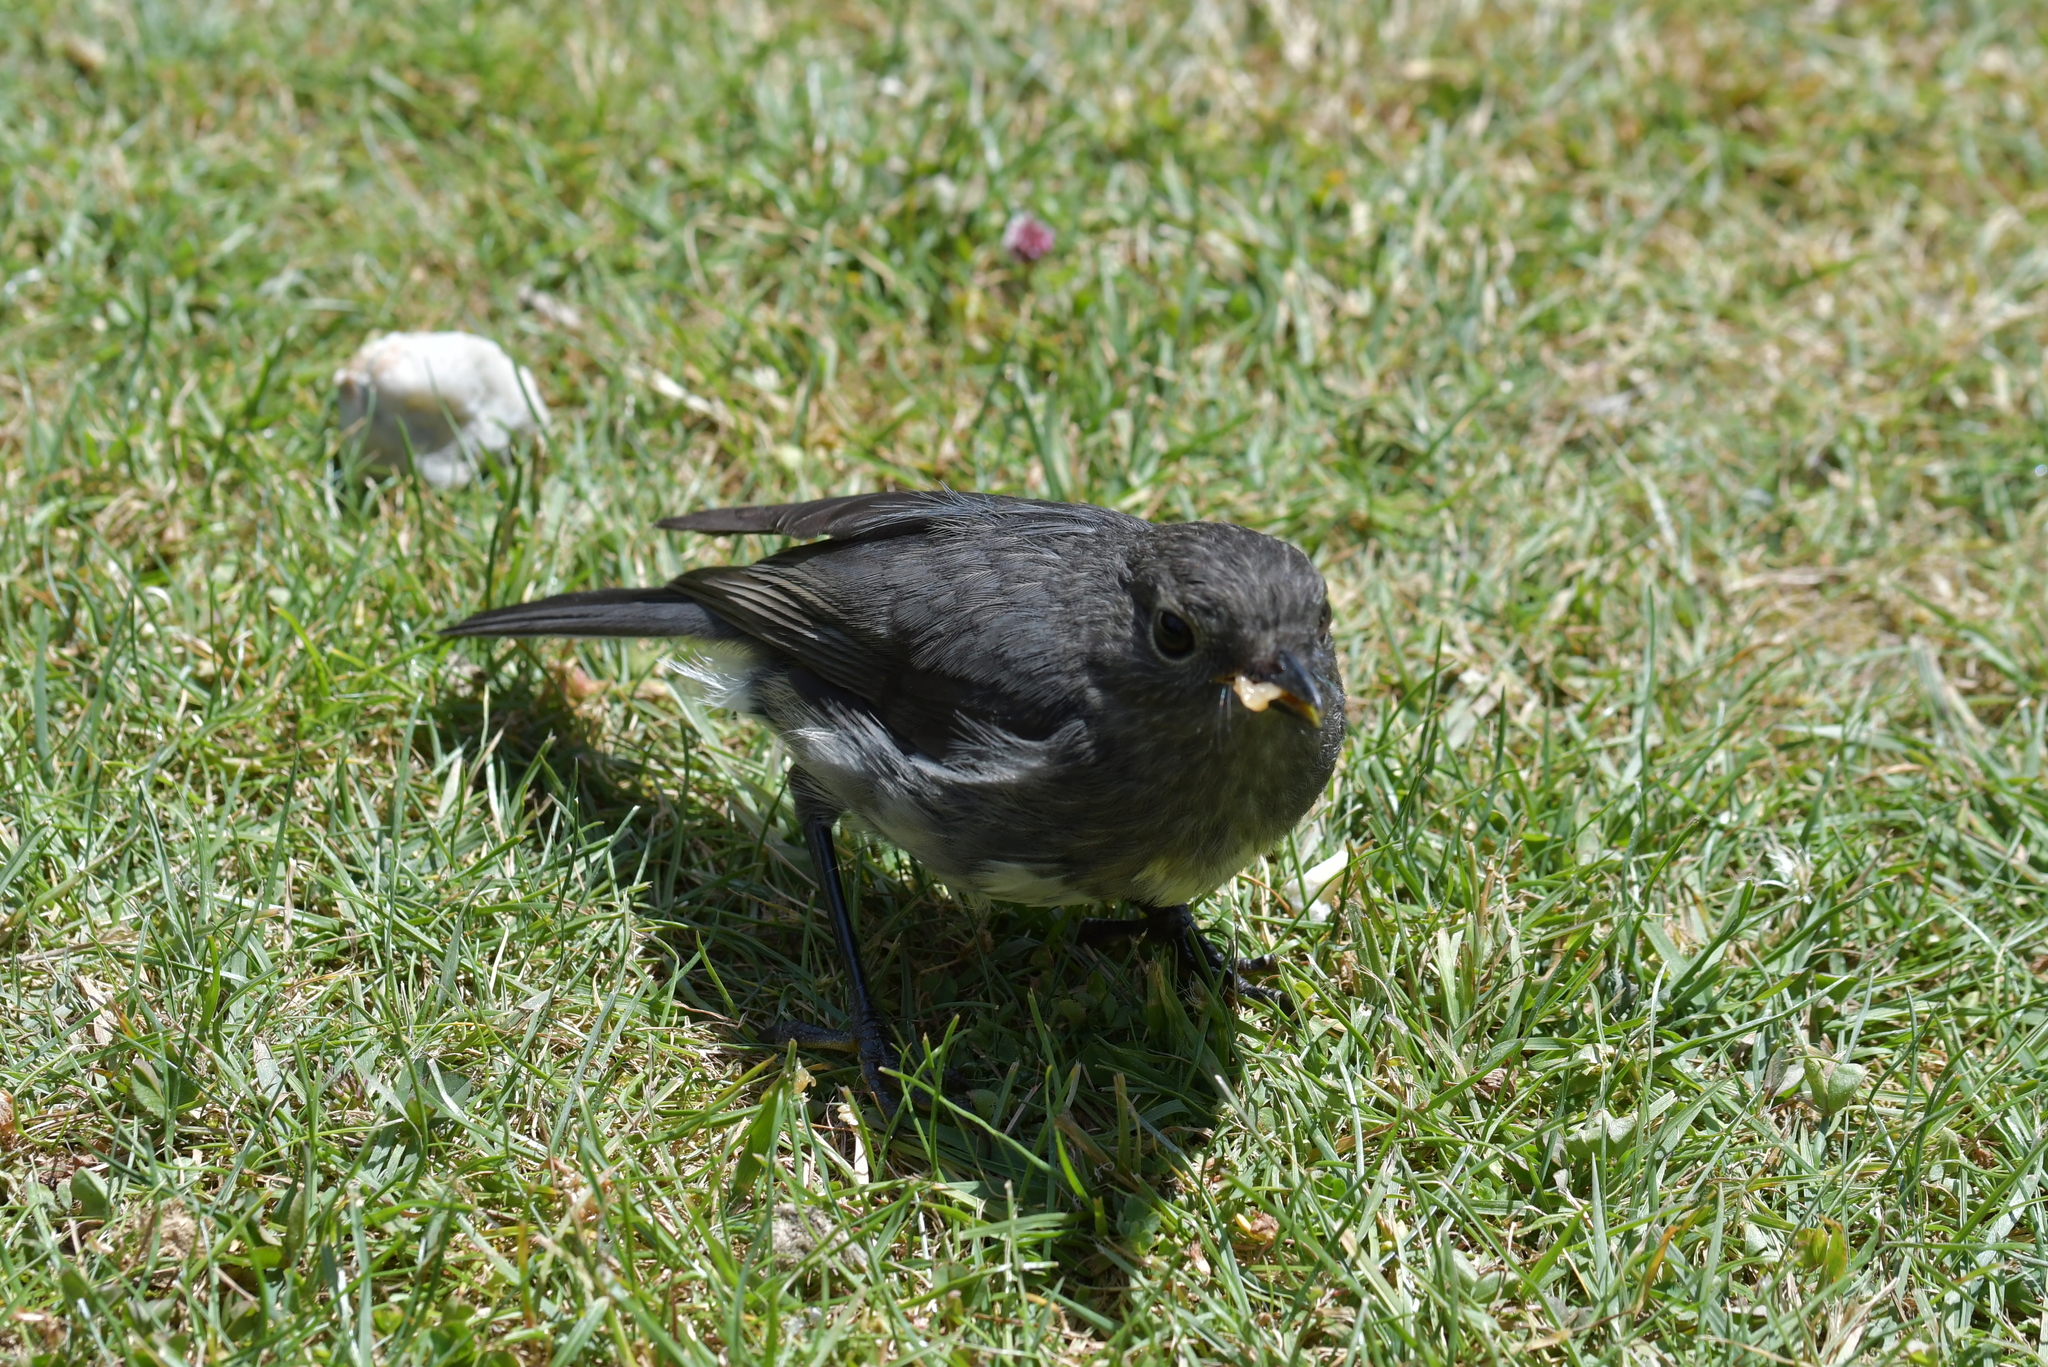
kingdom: Animalia
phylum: Chordata
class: Aves
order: Passeriformes
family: Petroicidae
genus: Petroica
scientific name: Petroica australis
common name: New zealand robin
